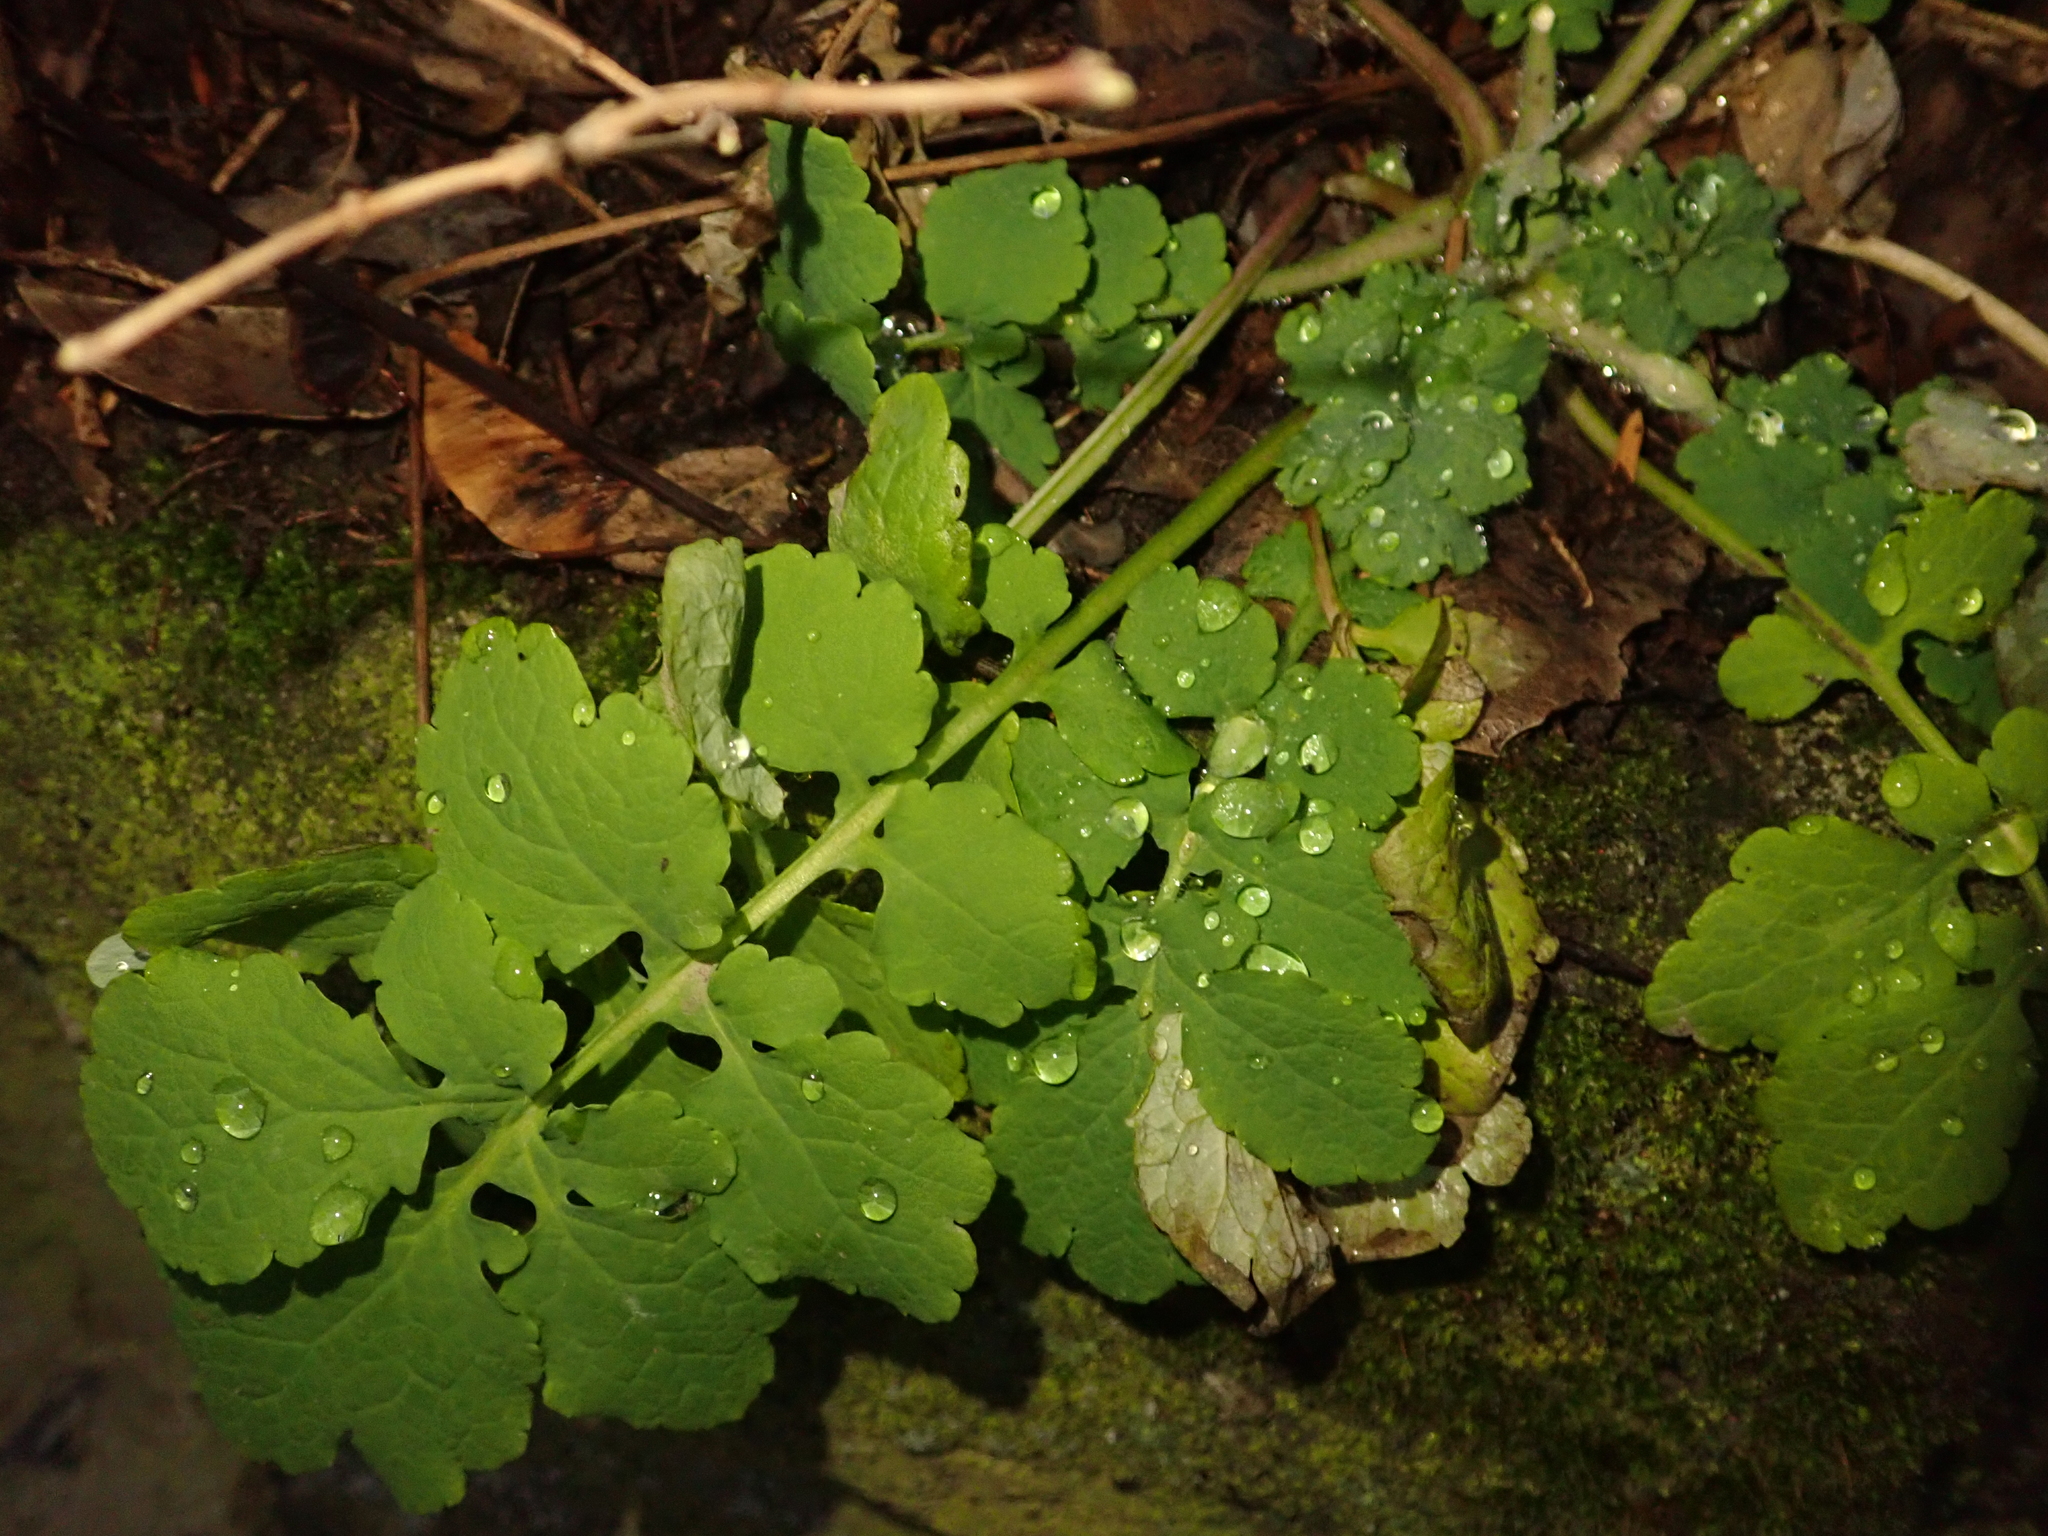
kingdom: Plantae
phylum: Tracheophyta
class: Magnoliopsida
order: Ranunculales
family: Papaveraceae
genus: Chelidonium
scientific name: Chelidonium majus
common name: Greater celandine
